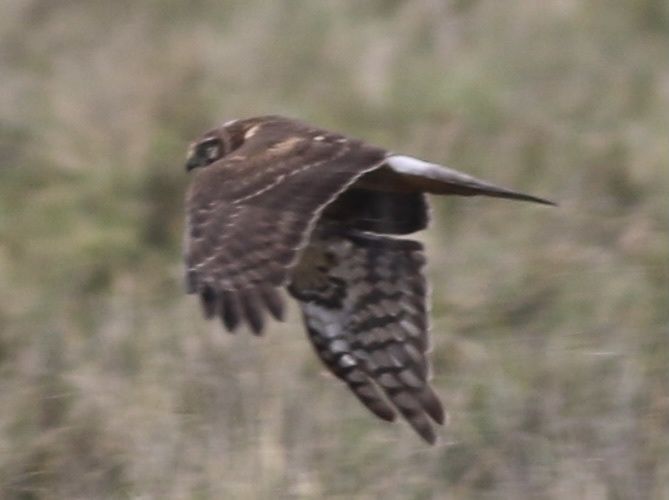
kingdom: Animalia
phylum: Chordata
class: Aves
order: Accipitriformes
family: Accipitridae
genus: Circus
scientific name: Circus cyaneus
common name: Hen harrier
